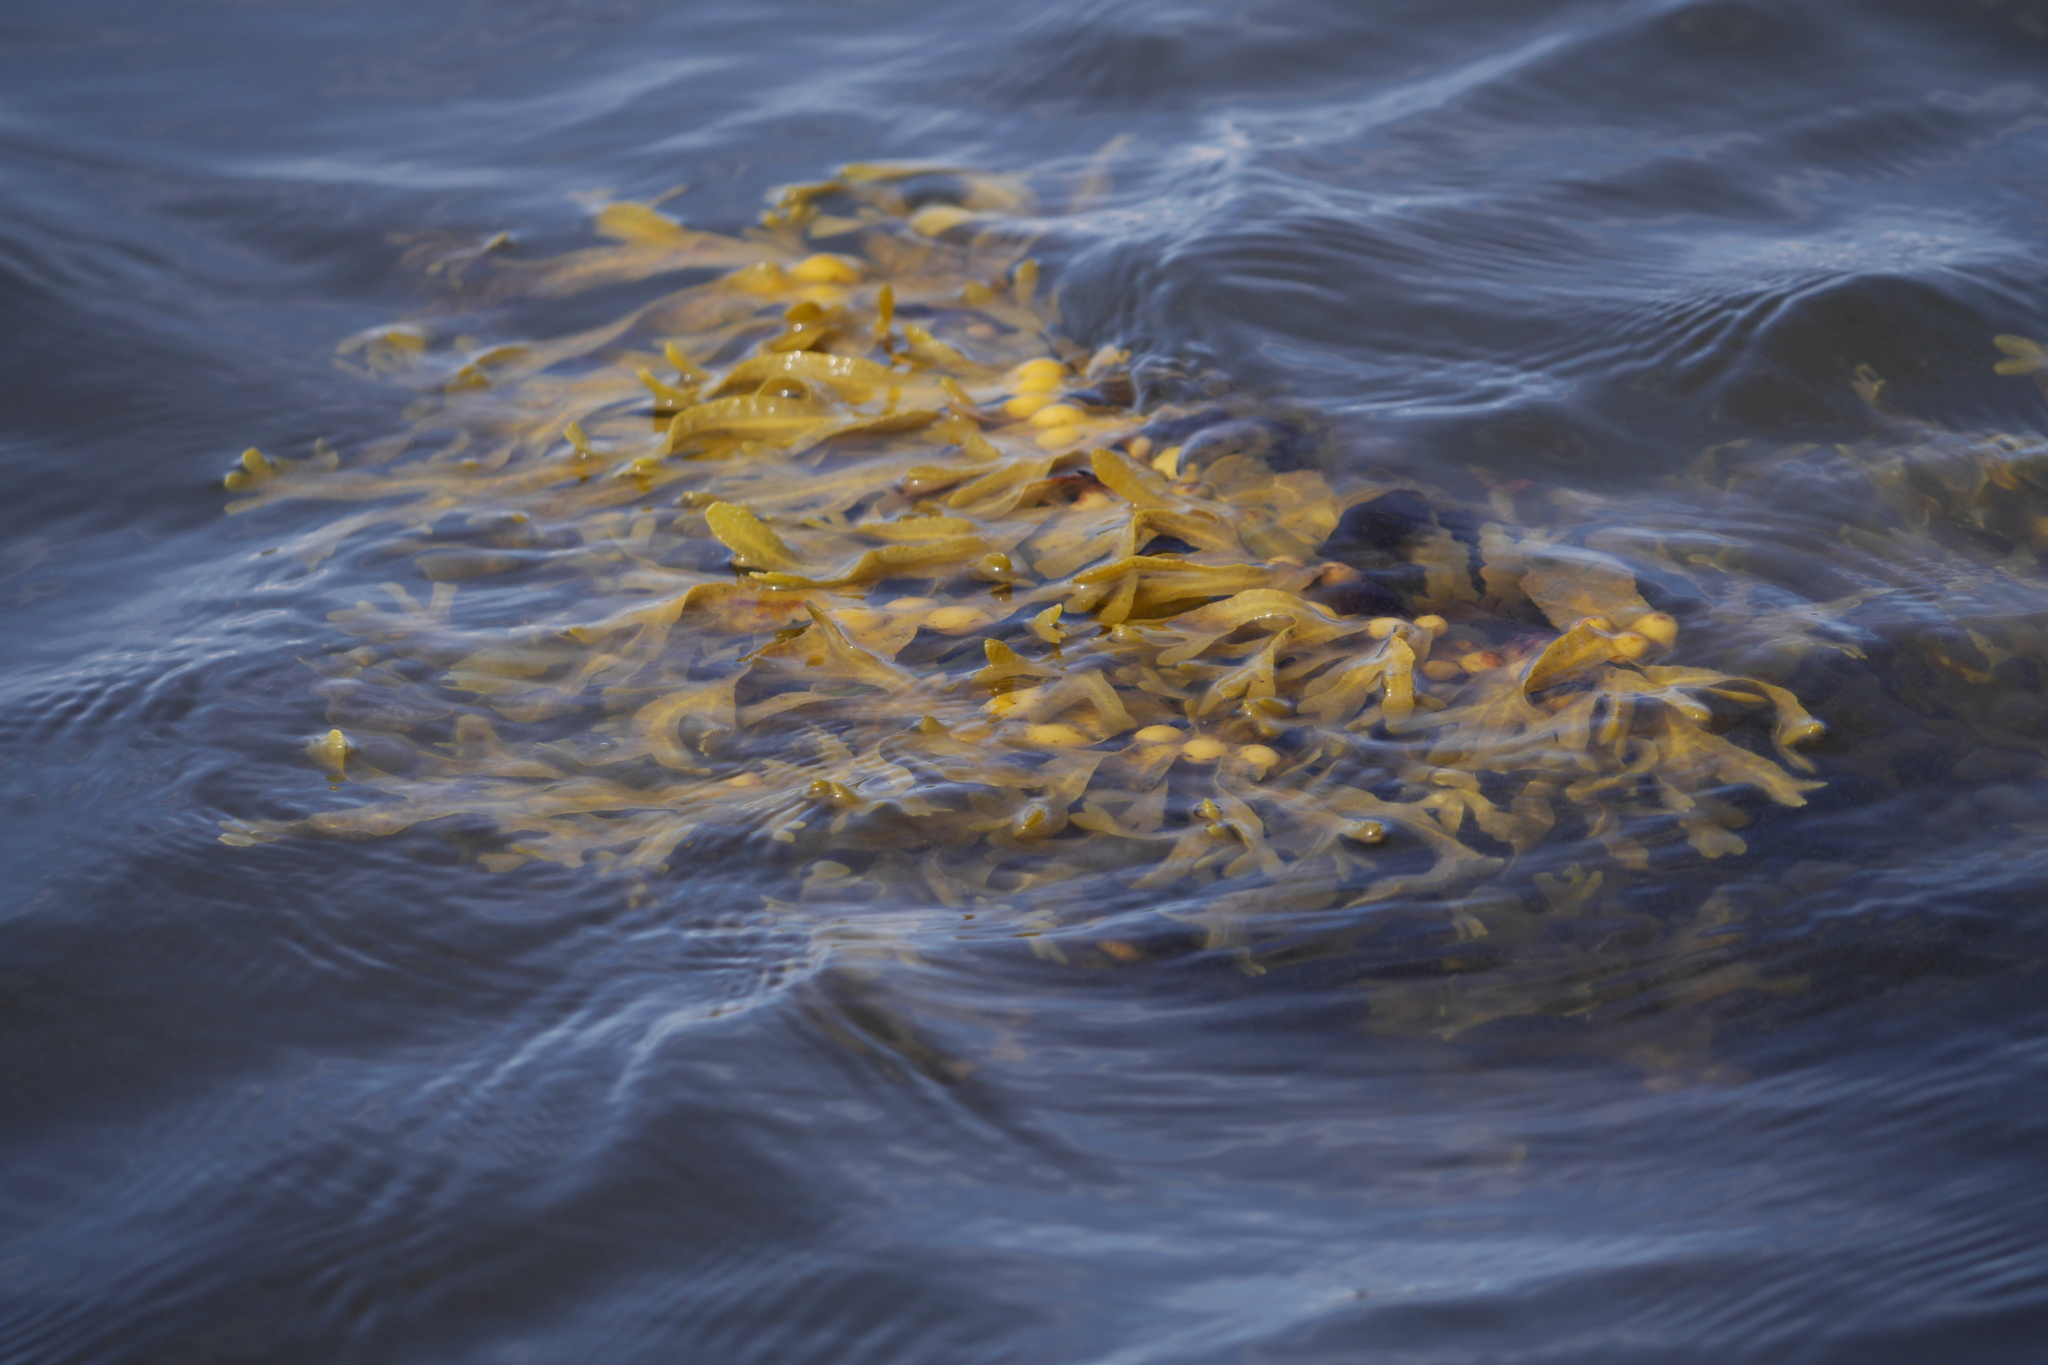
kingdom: Chromista
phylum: Ochrophyta
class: Phaeophyceae
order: Fucales
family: Fucaceae
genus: Fucus
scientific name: Fucus vesiculosus
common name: Bladder wrack
